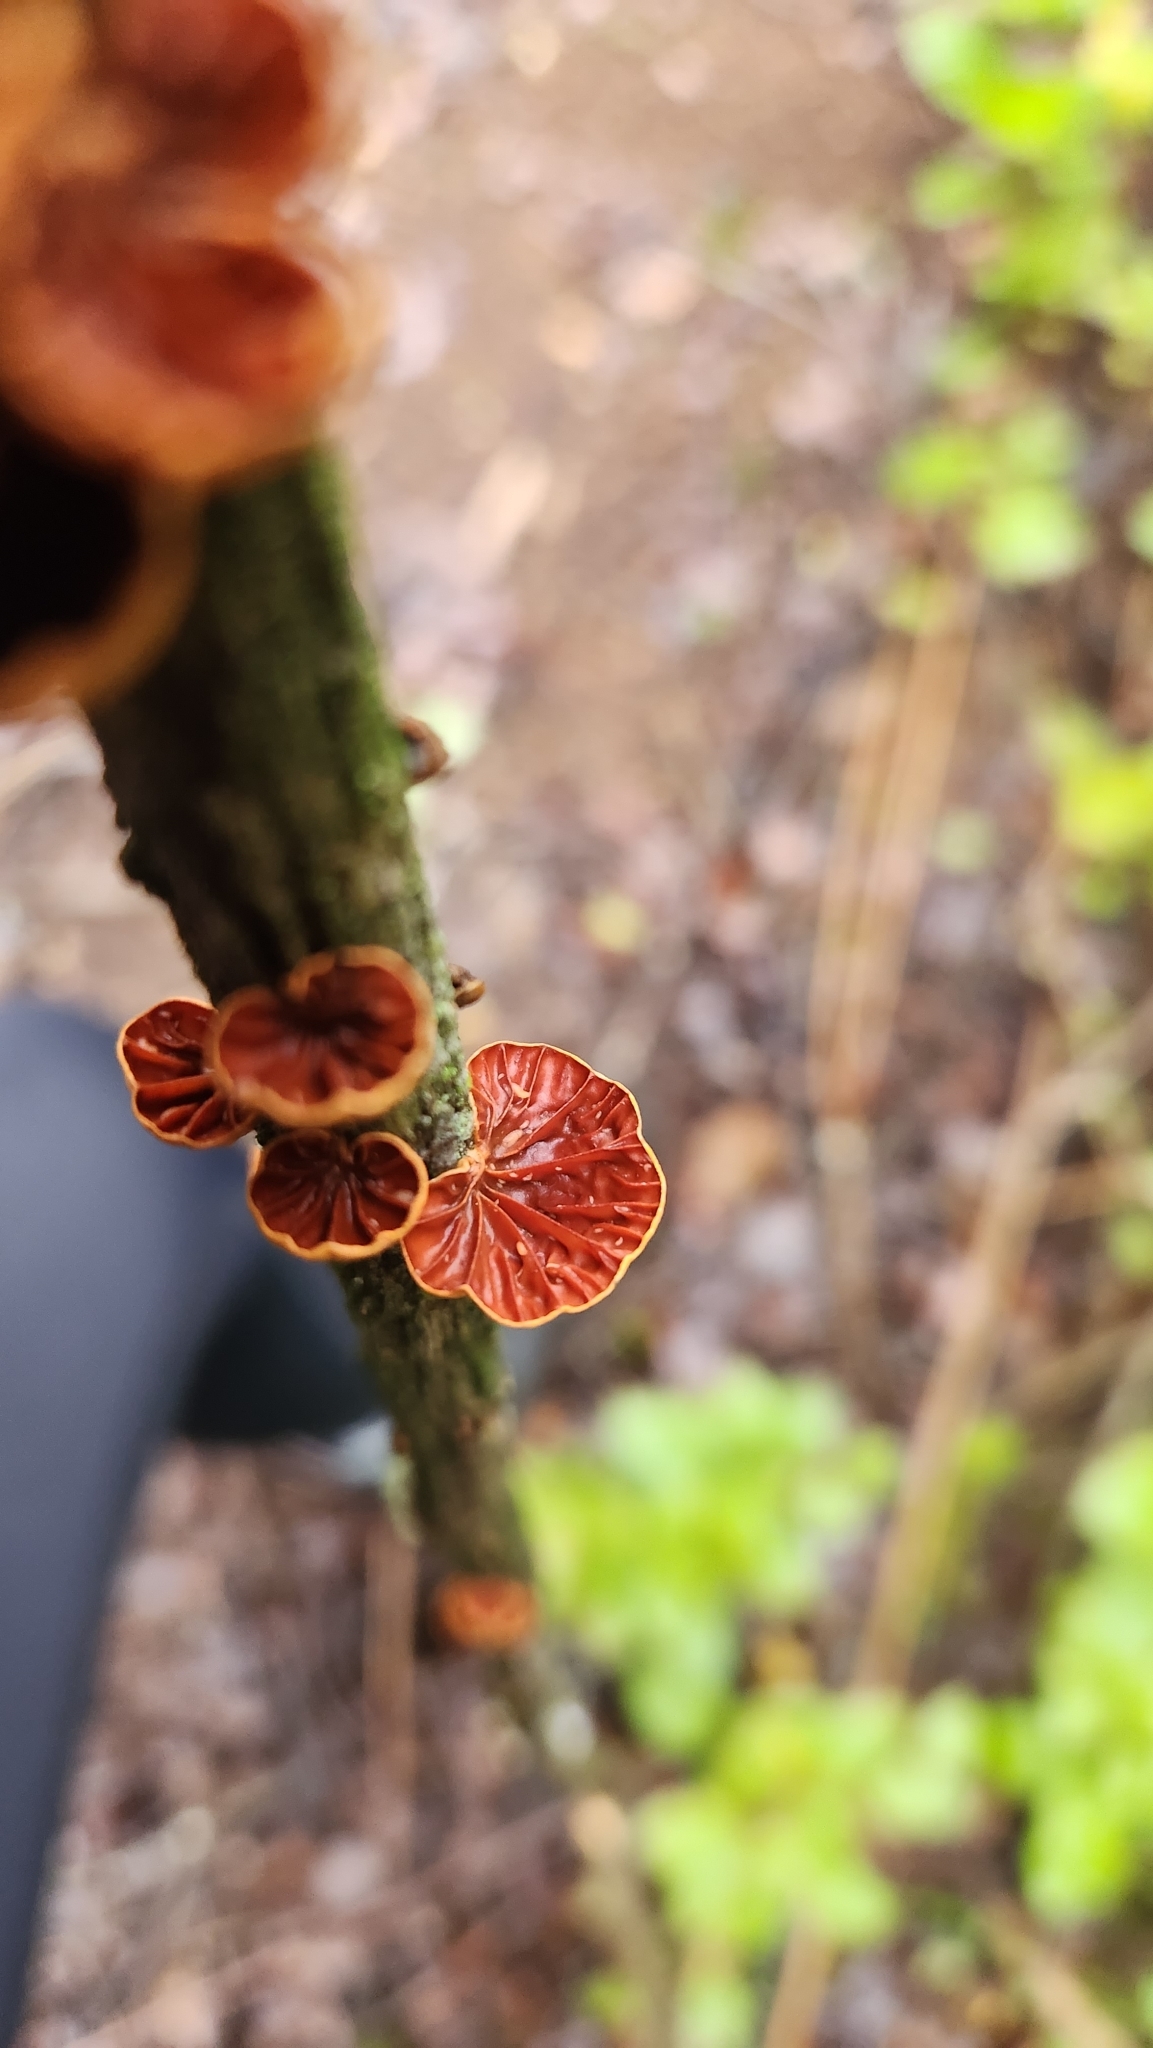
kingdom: Fungi
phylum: Basidiomycota
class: Agaricomycetes
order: Agaricales
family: Omphalotaceae
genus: Anthracophyllum
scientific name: Anthracophyllum discolor
